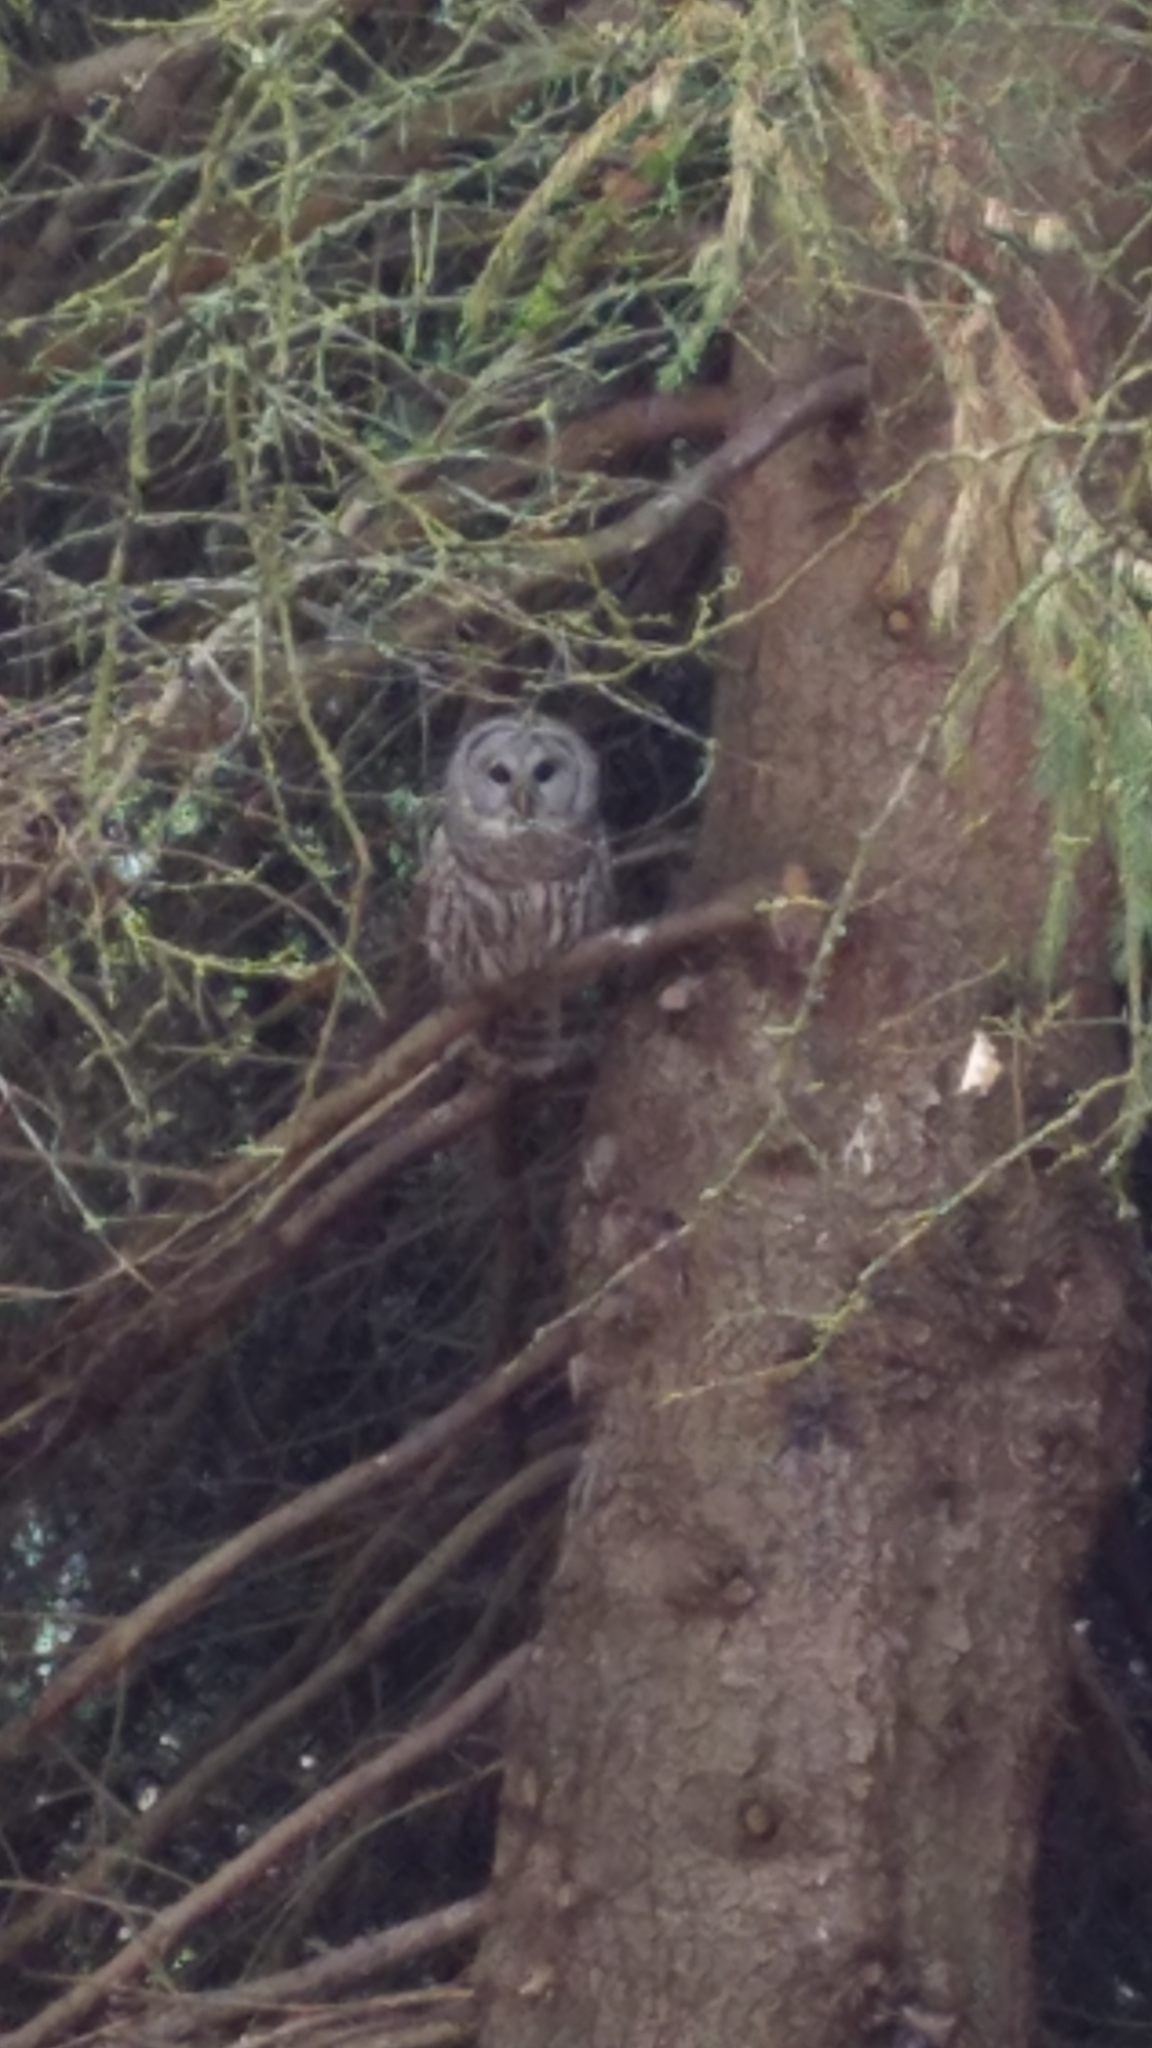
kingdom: Animalia
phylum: Chordata
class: Aves
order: Strigiformes
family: Strigidae
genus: Strix
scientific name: Strix varia
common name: Barred owl
